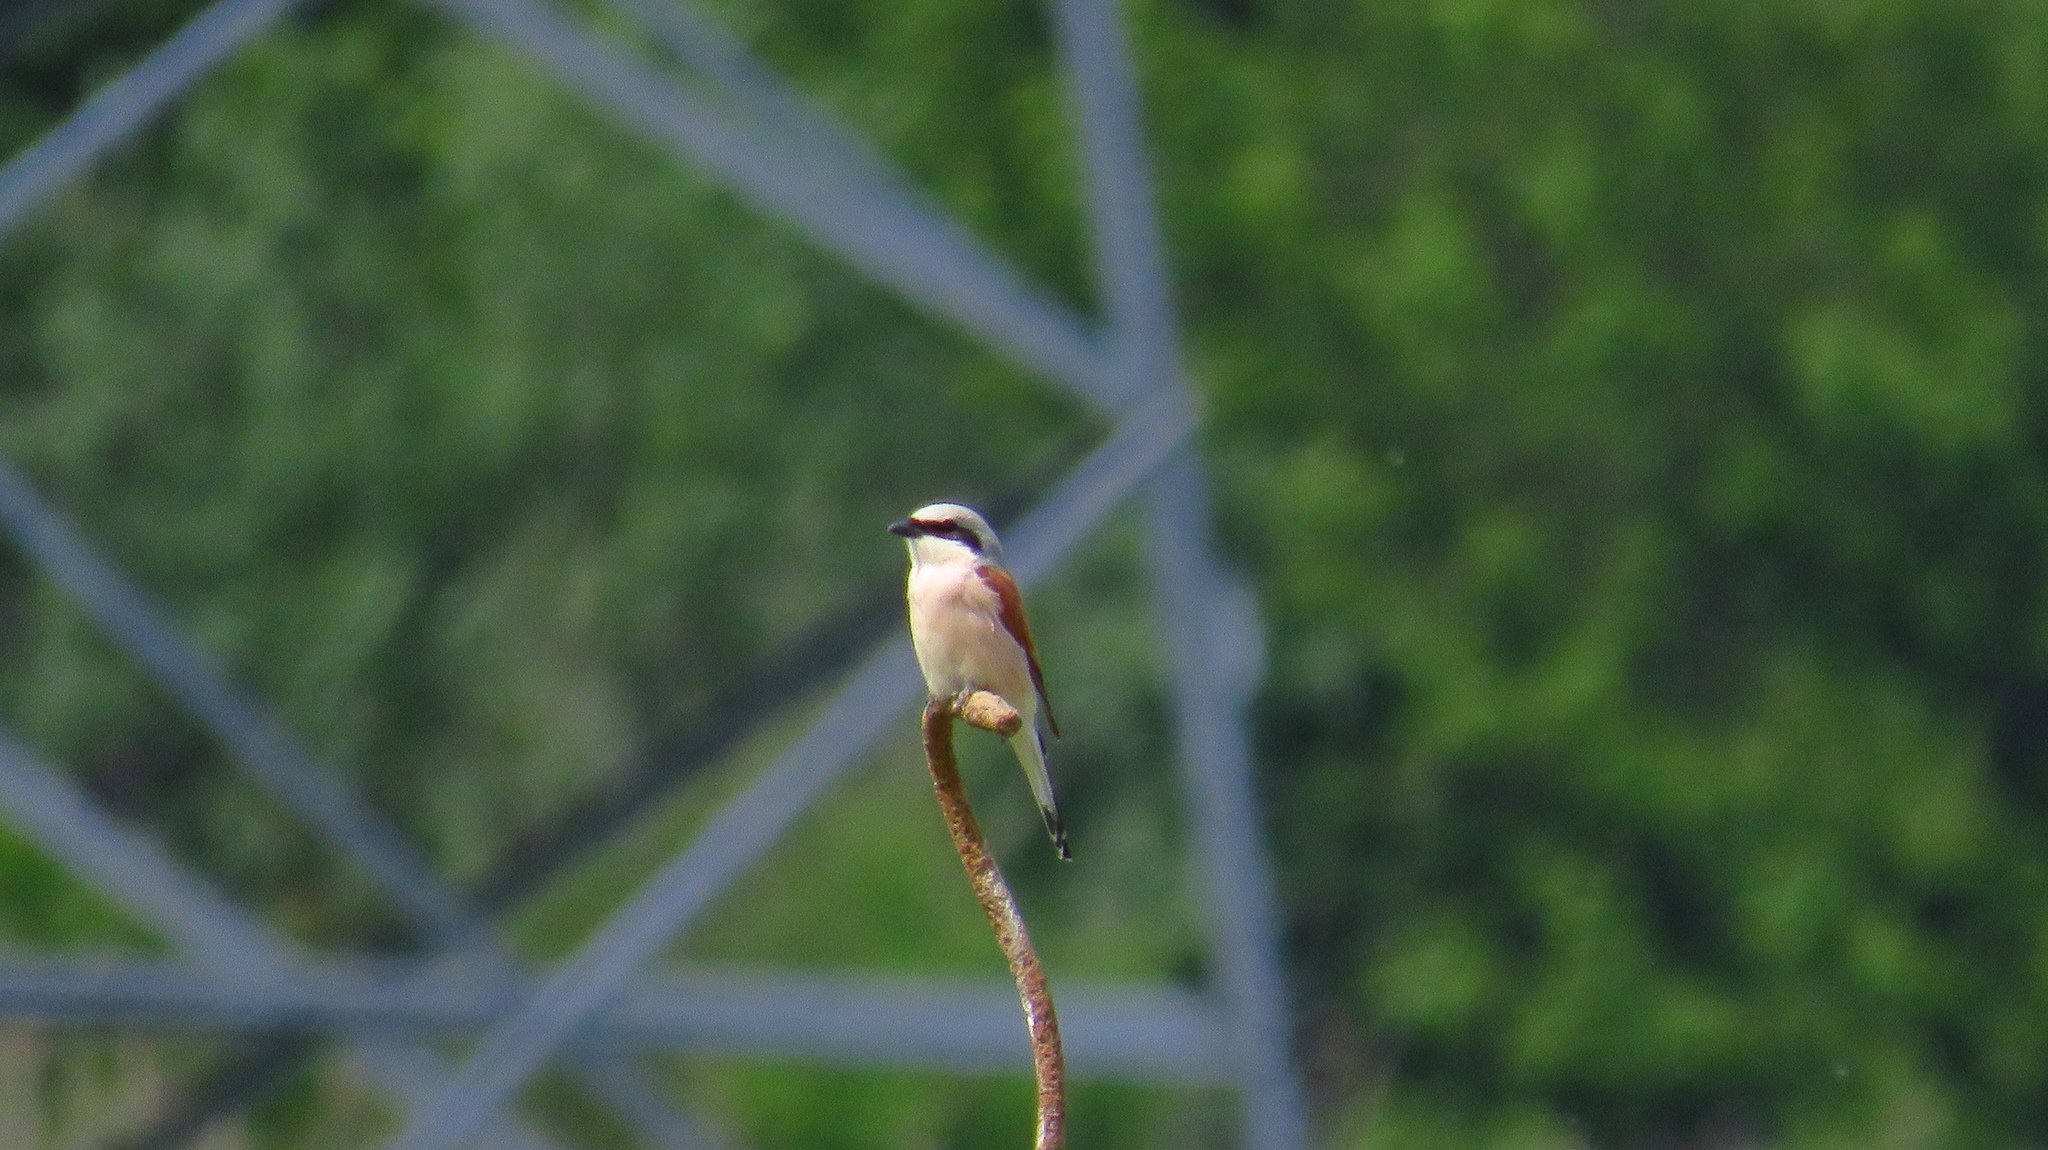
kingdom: Animalia
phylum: Chordata
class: Aves
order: Passeriformes
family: Laniidae
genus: Lanius
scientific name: Lanius collurio
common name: Red-backed shrike
